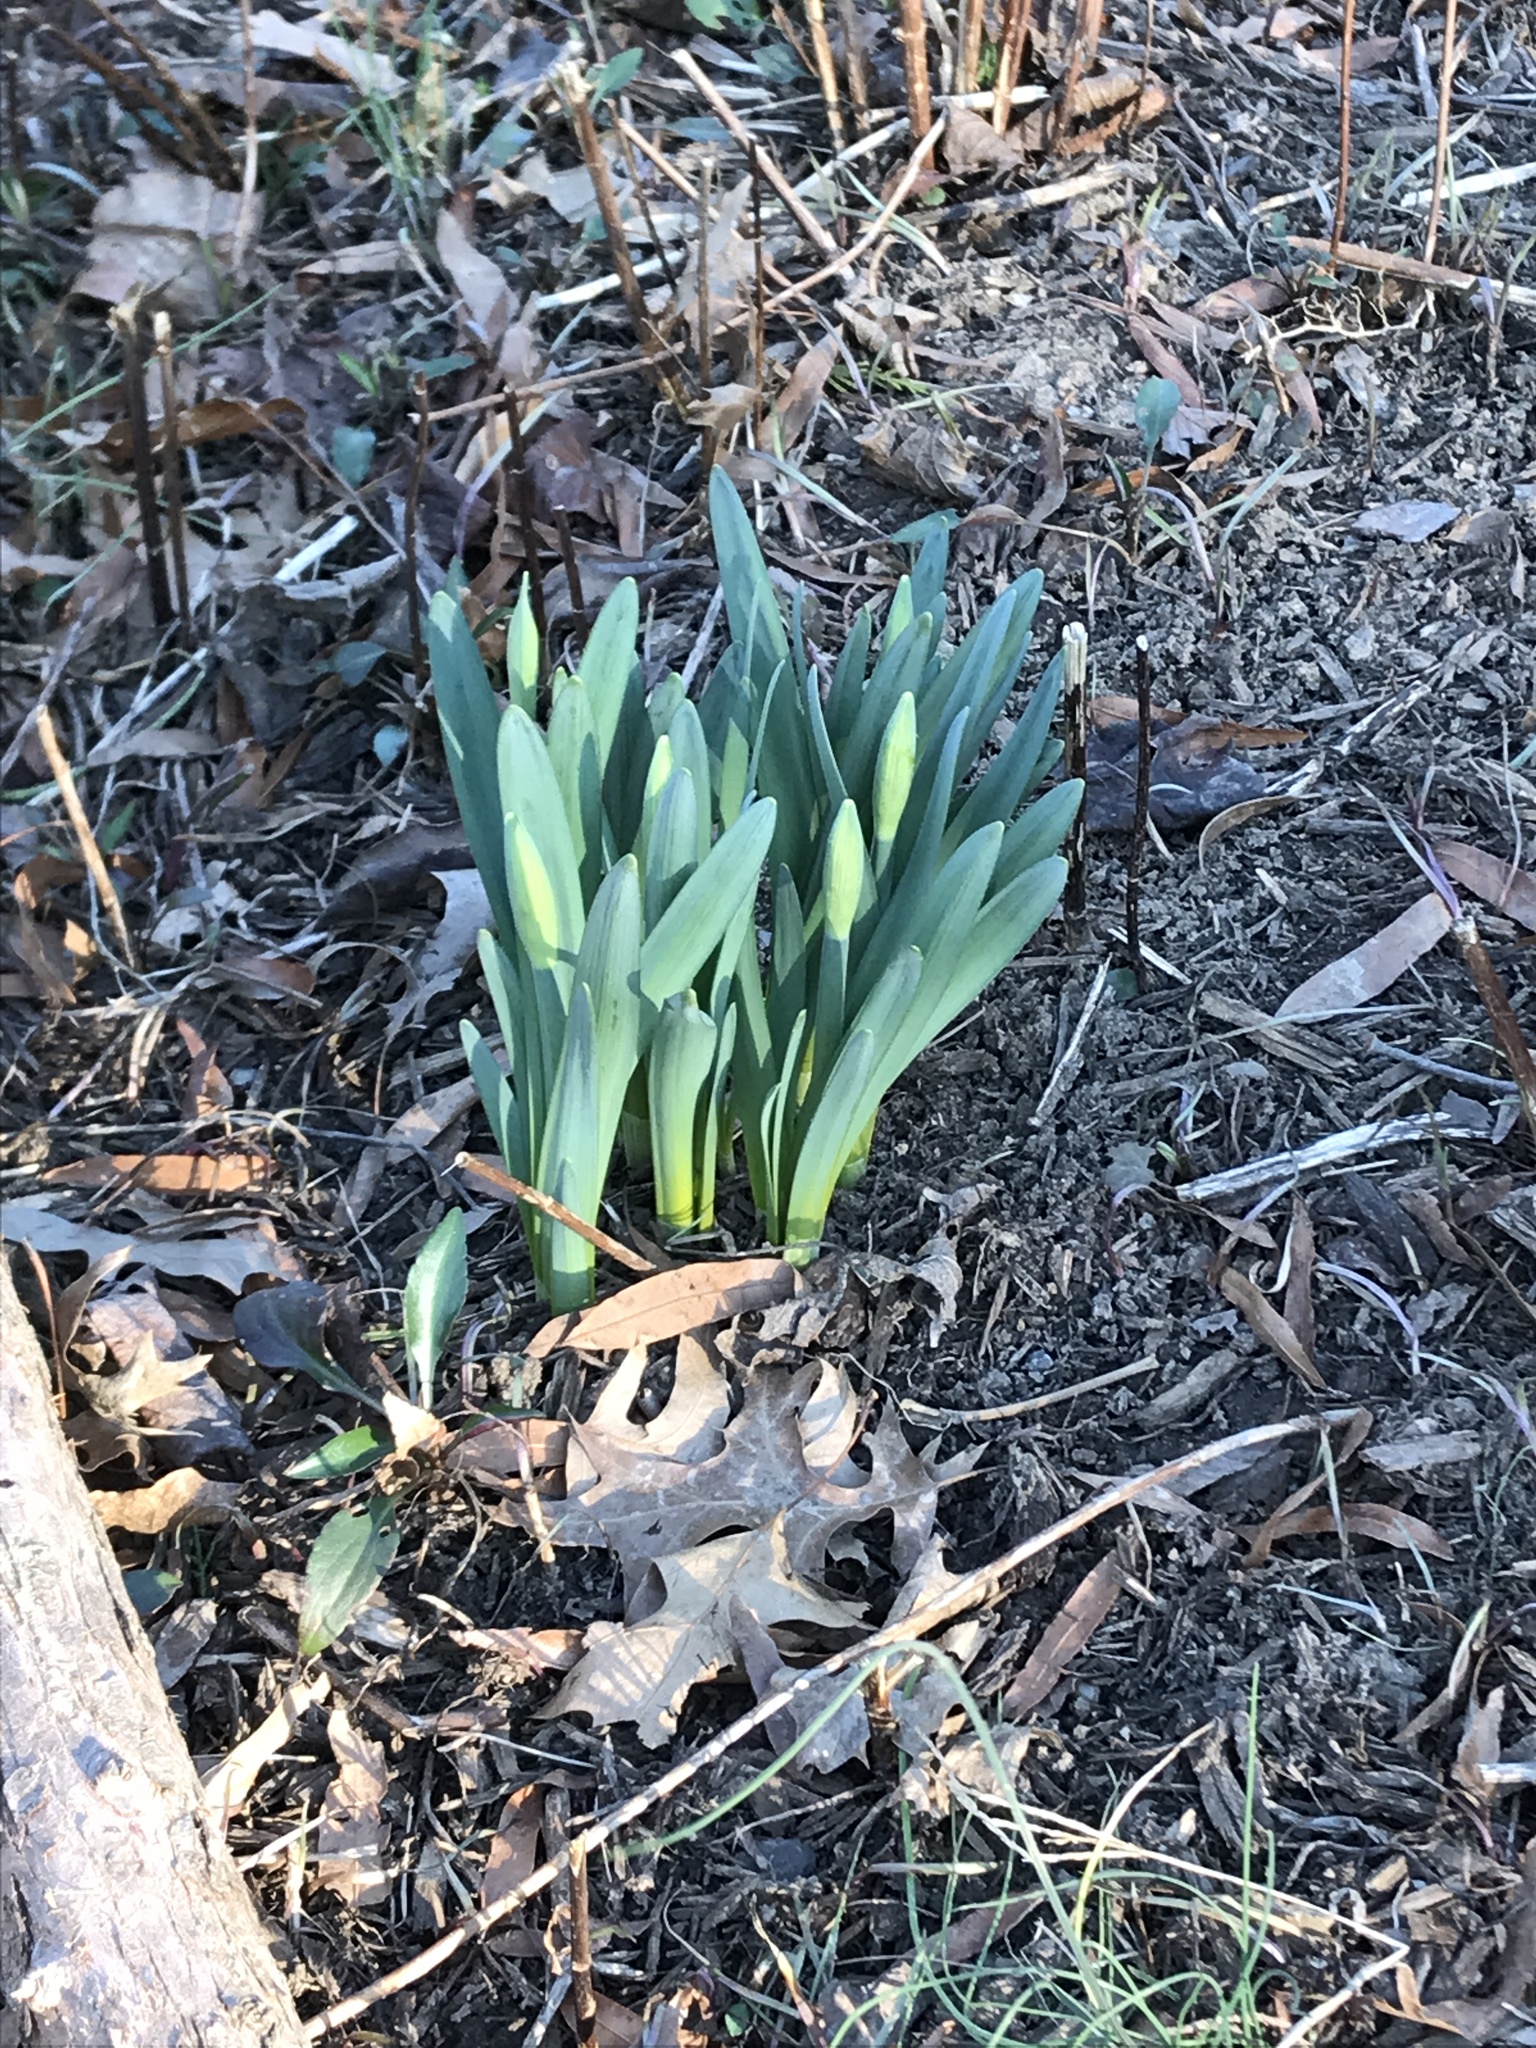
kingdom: Plantae
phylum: Tracheophyta
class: Liliopsida
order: Asparagales
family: Amaryllidaceae
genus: Narcissus
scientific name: Narcissus pseudonarcissus
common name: Daffodil
